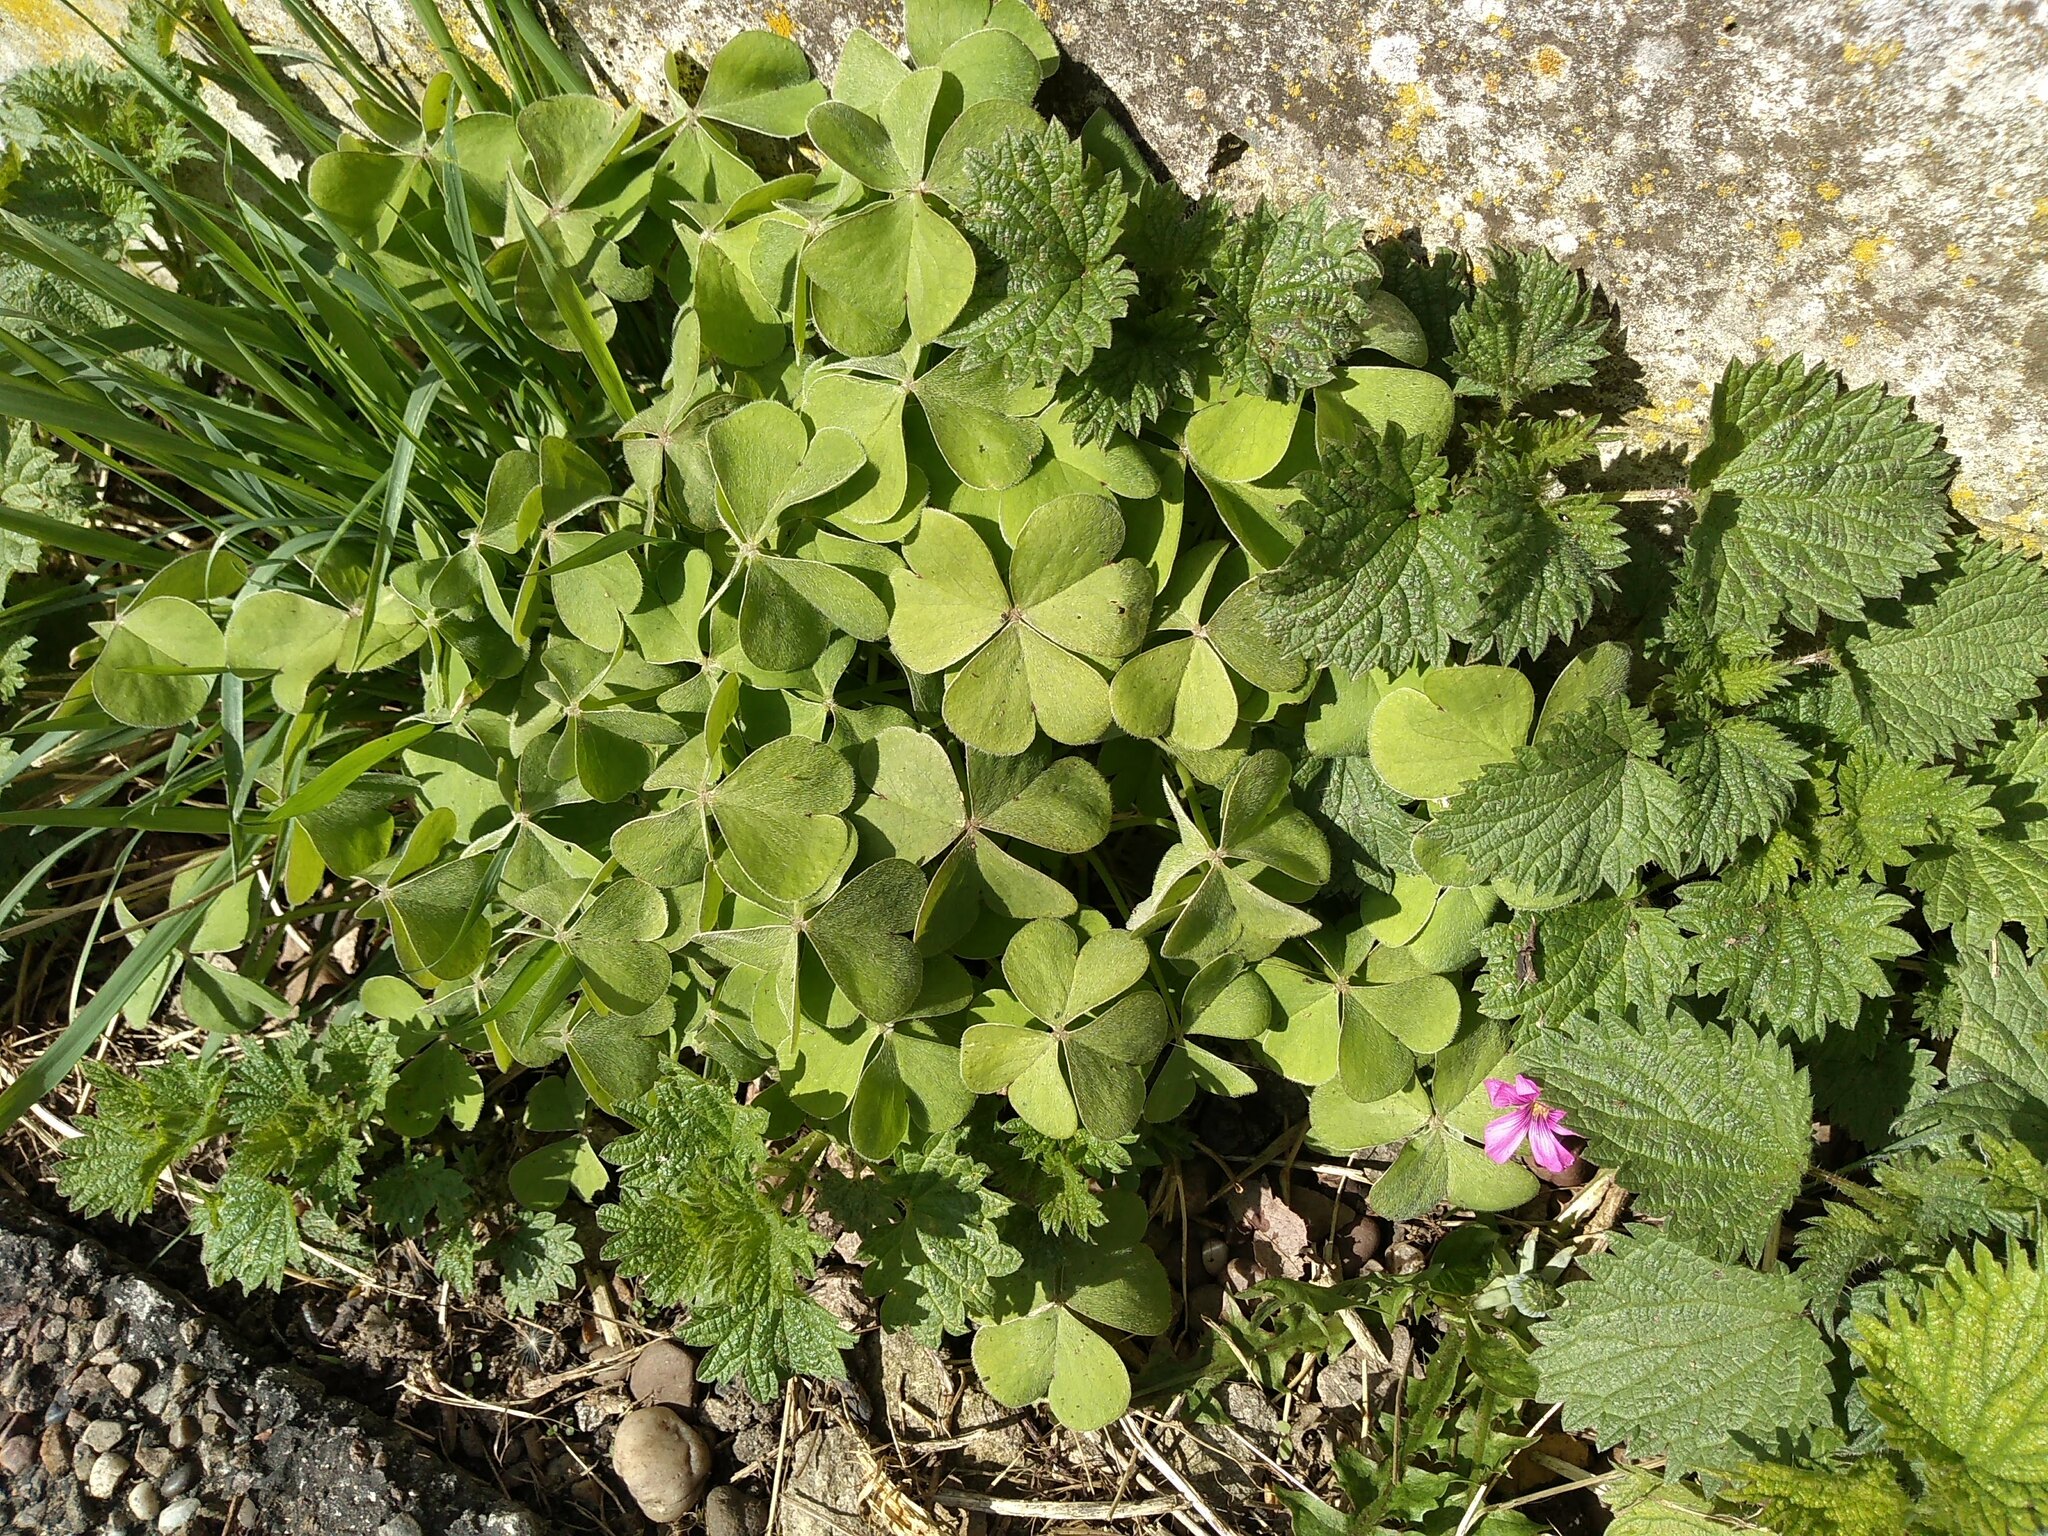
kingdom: Plantae
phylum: Tracheophyta
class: Magnoliopsida
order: Oxalidales
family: Oxalidaceae
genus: Oxalis
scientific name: Oxalis articulata
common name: Pink-sorrel
